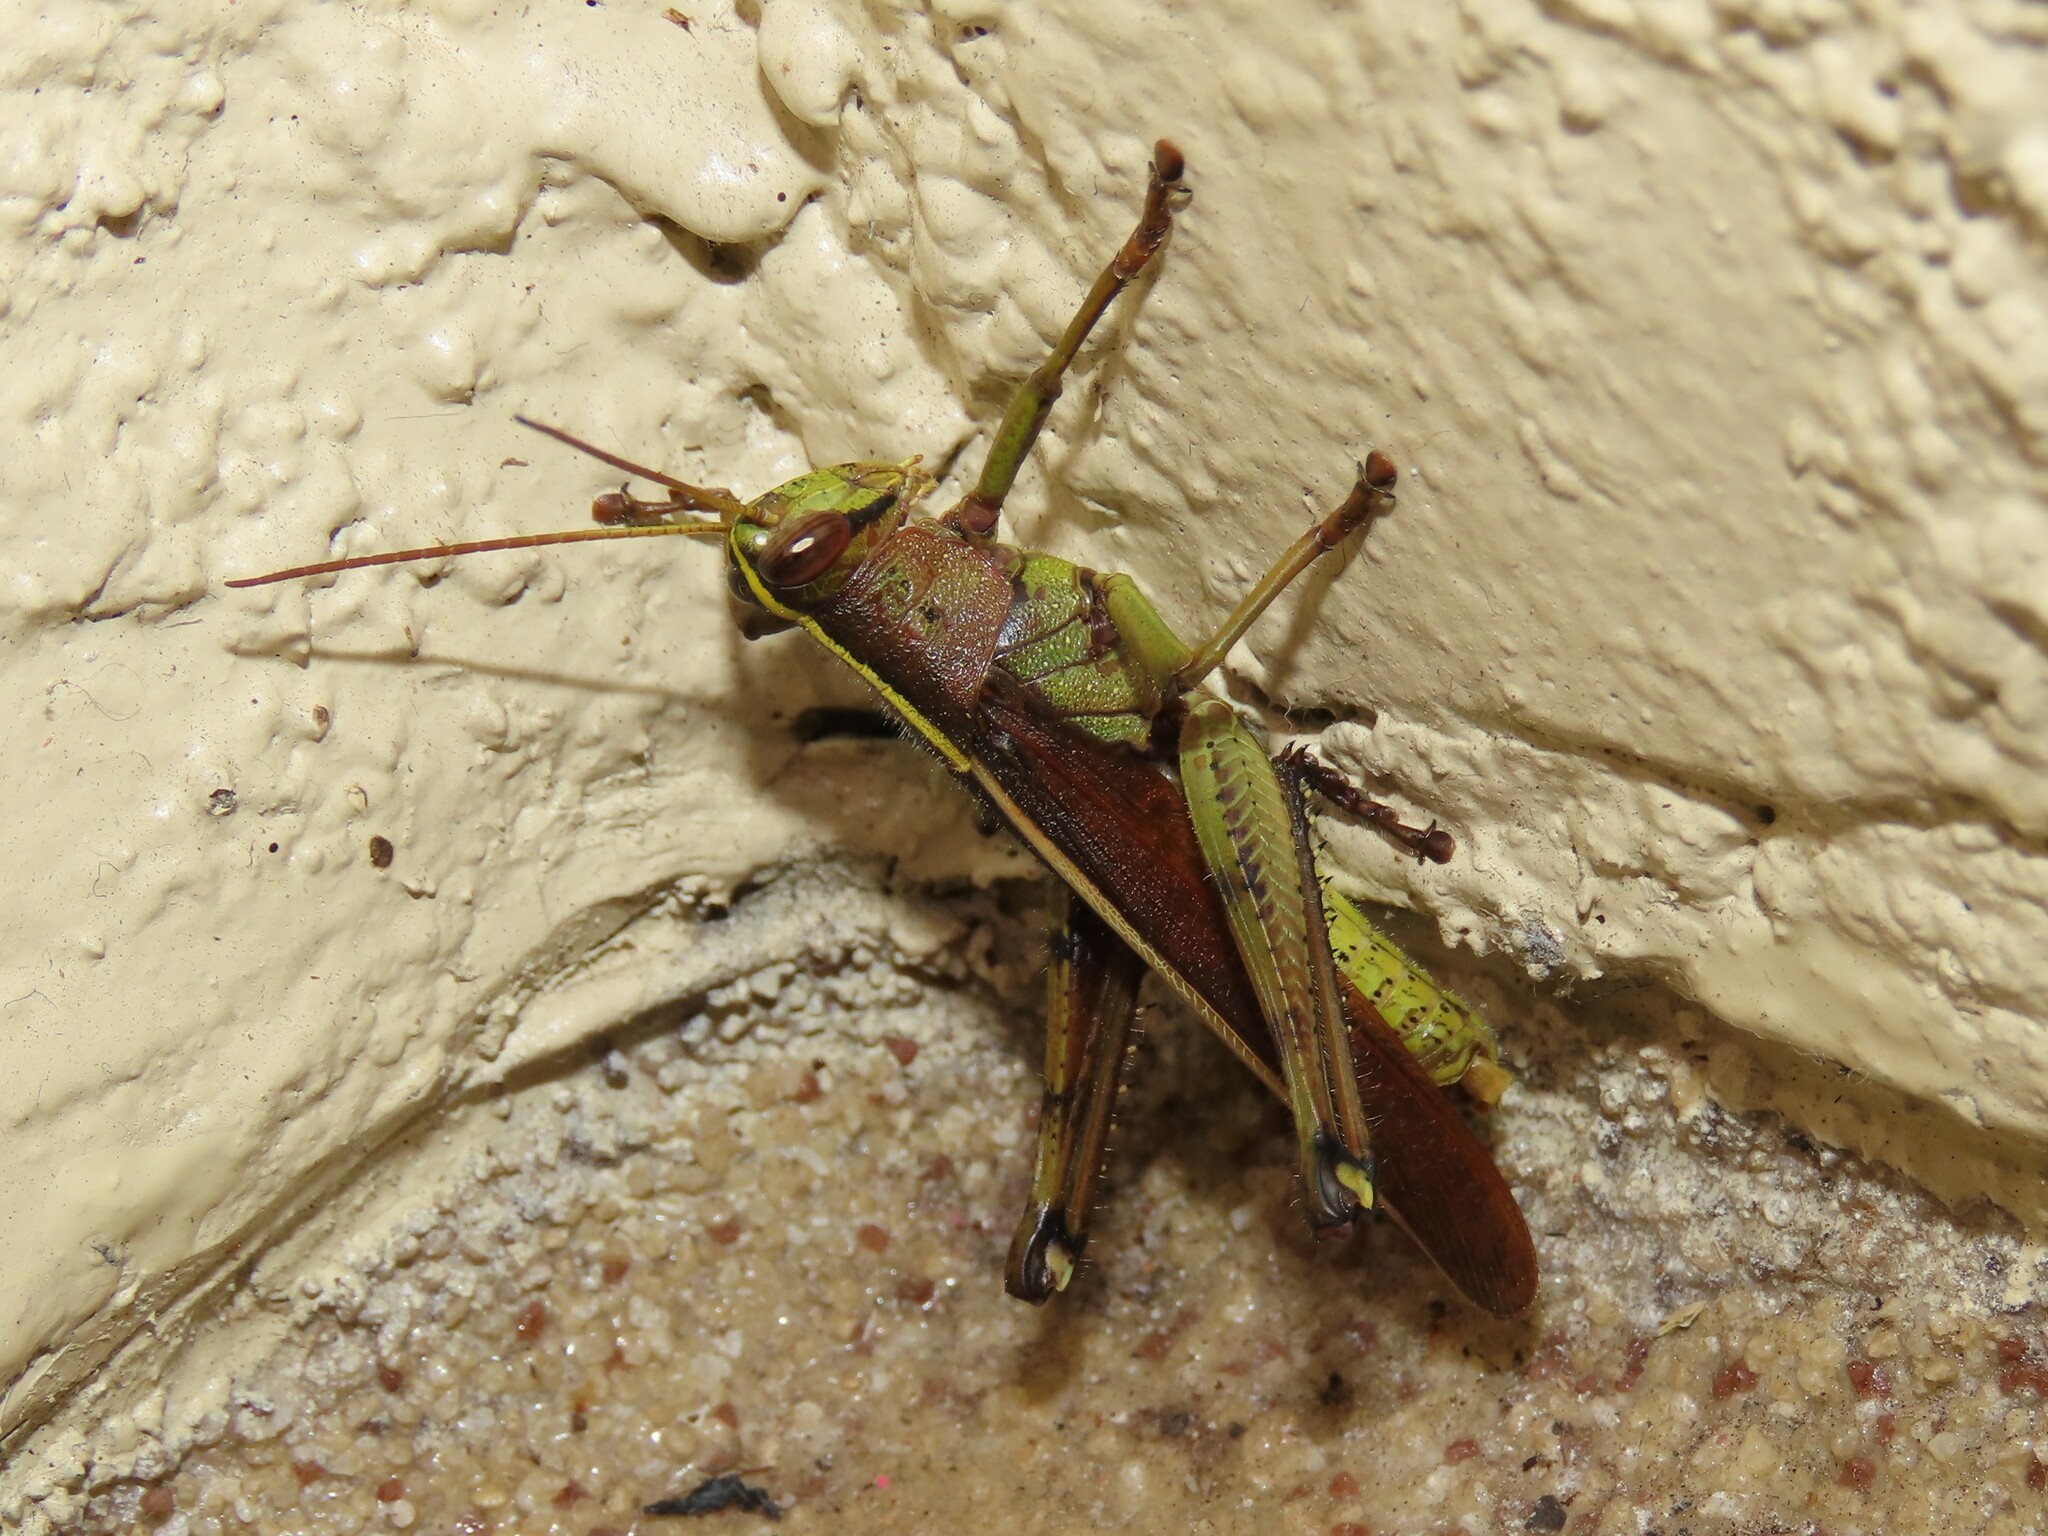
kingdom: Animalia
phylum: Arthropoda
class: Insecta
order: Orthoptera
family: Acrididae
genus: Schistocerca
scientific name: Schistocerca alutacea
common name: Leather-colored bird locust
